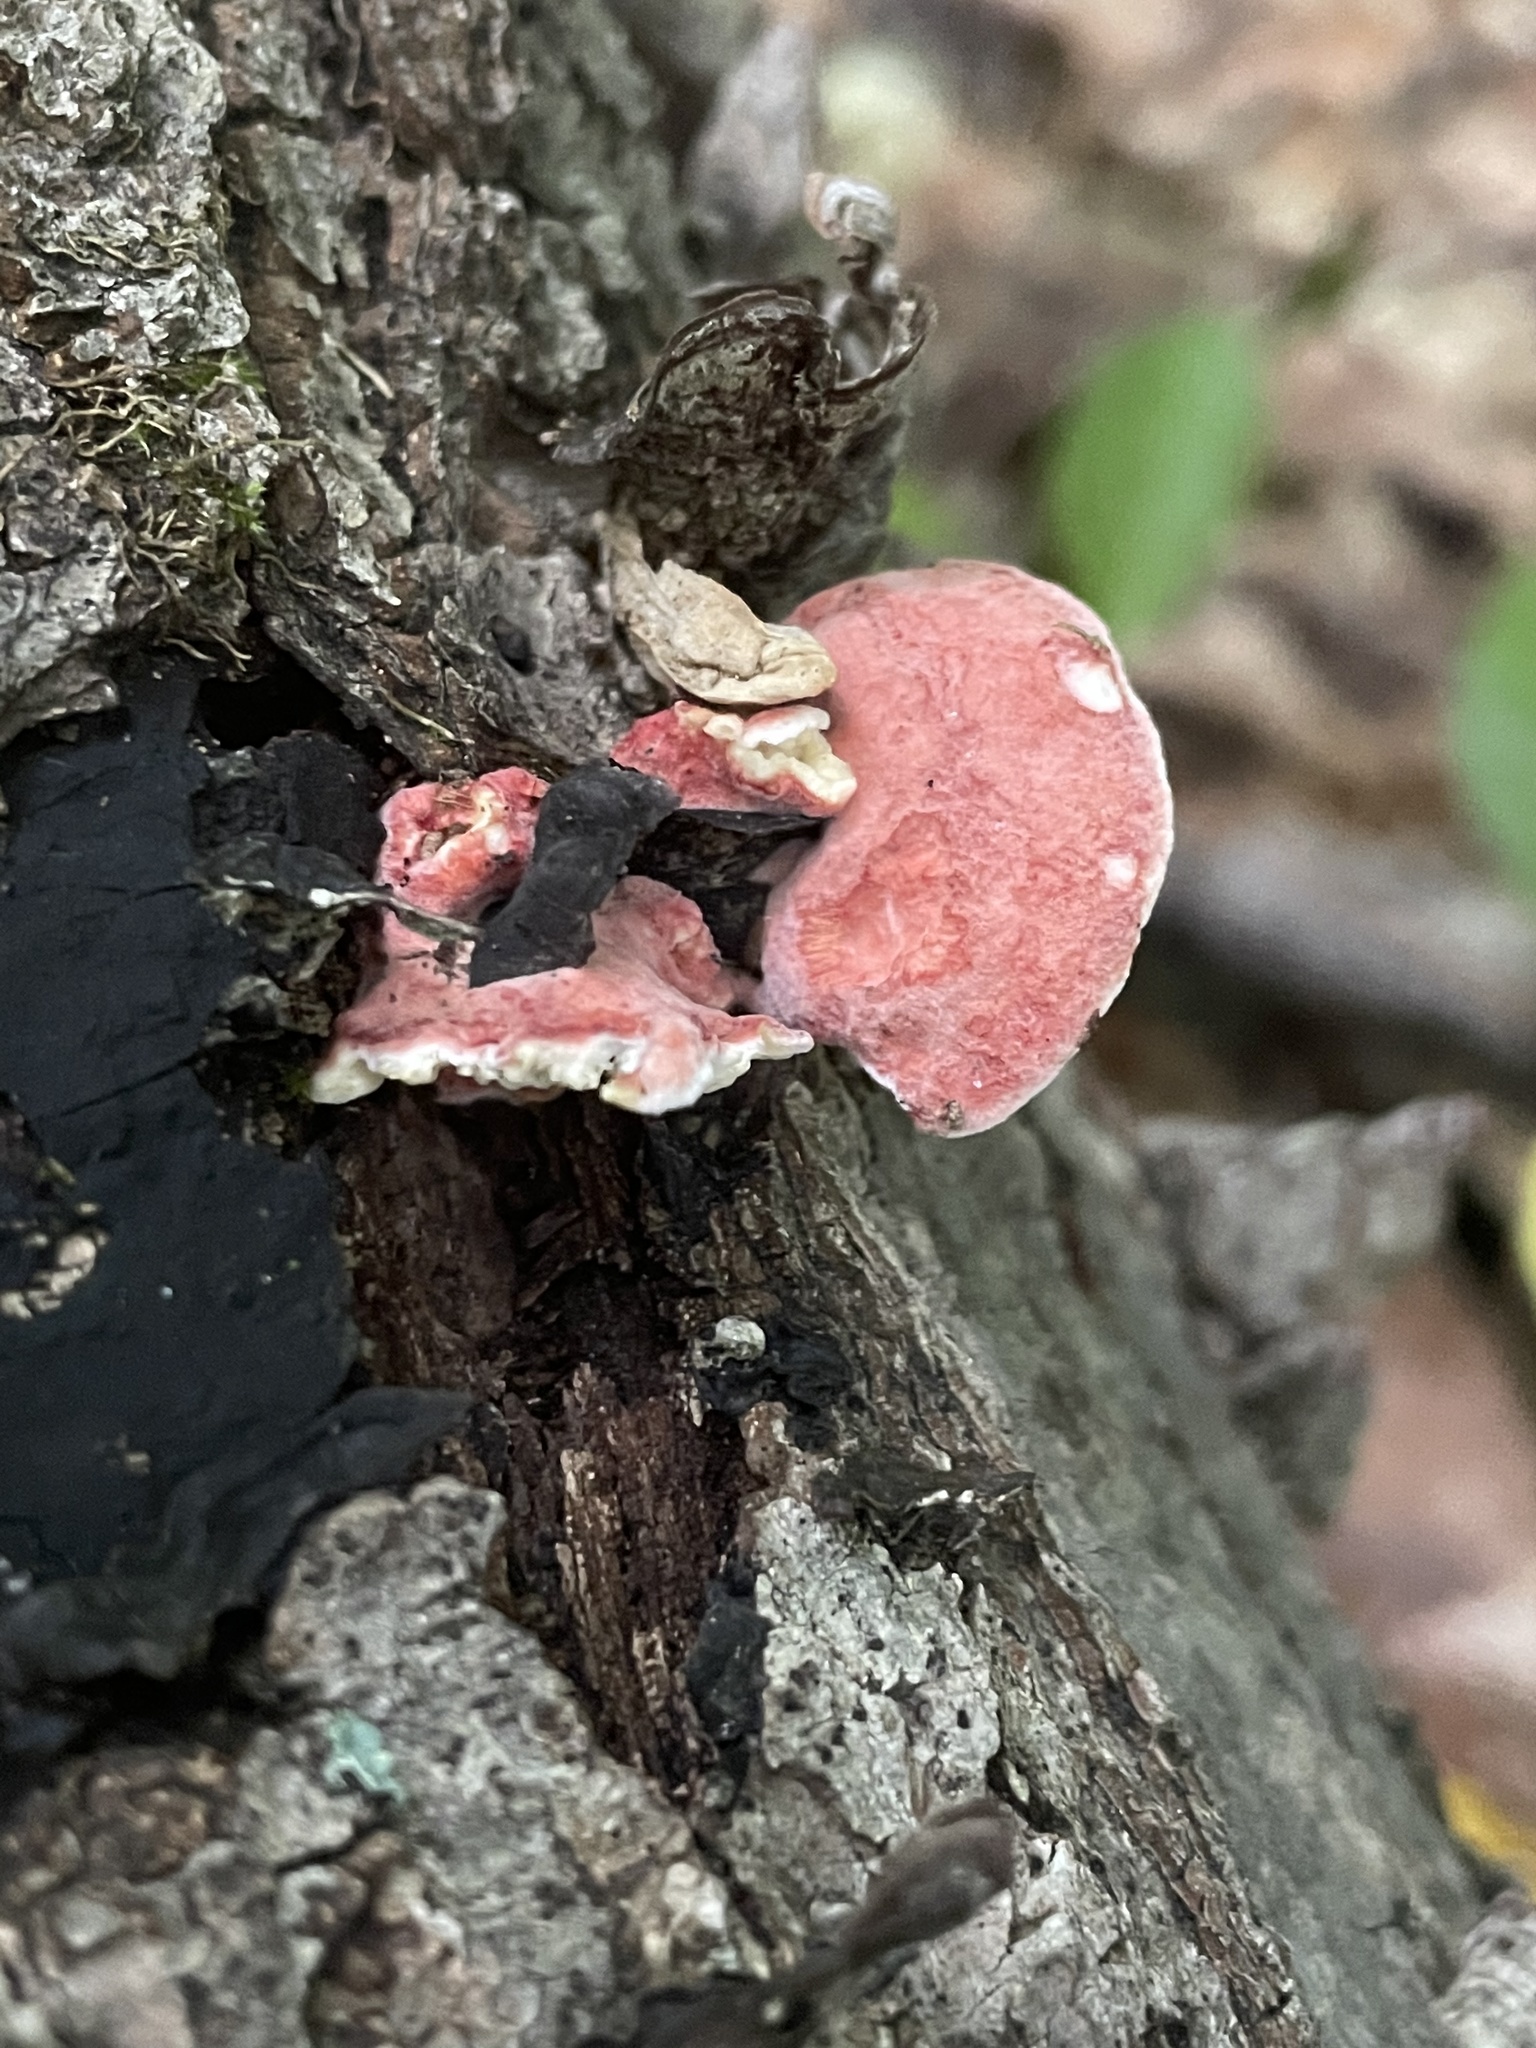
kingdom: Fungi
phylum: Basidiomycota
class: Agaricomycetes
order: Polyporales
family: Irpicaceae
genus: Byssomerulius
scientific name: Byssomerulius incarnatus
